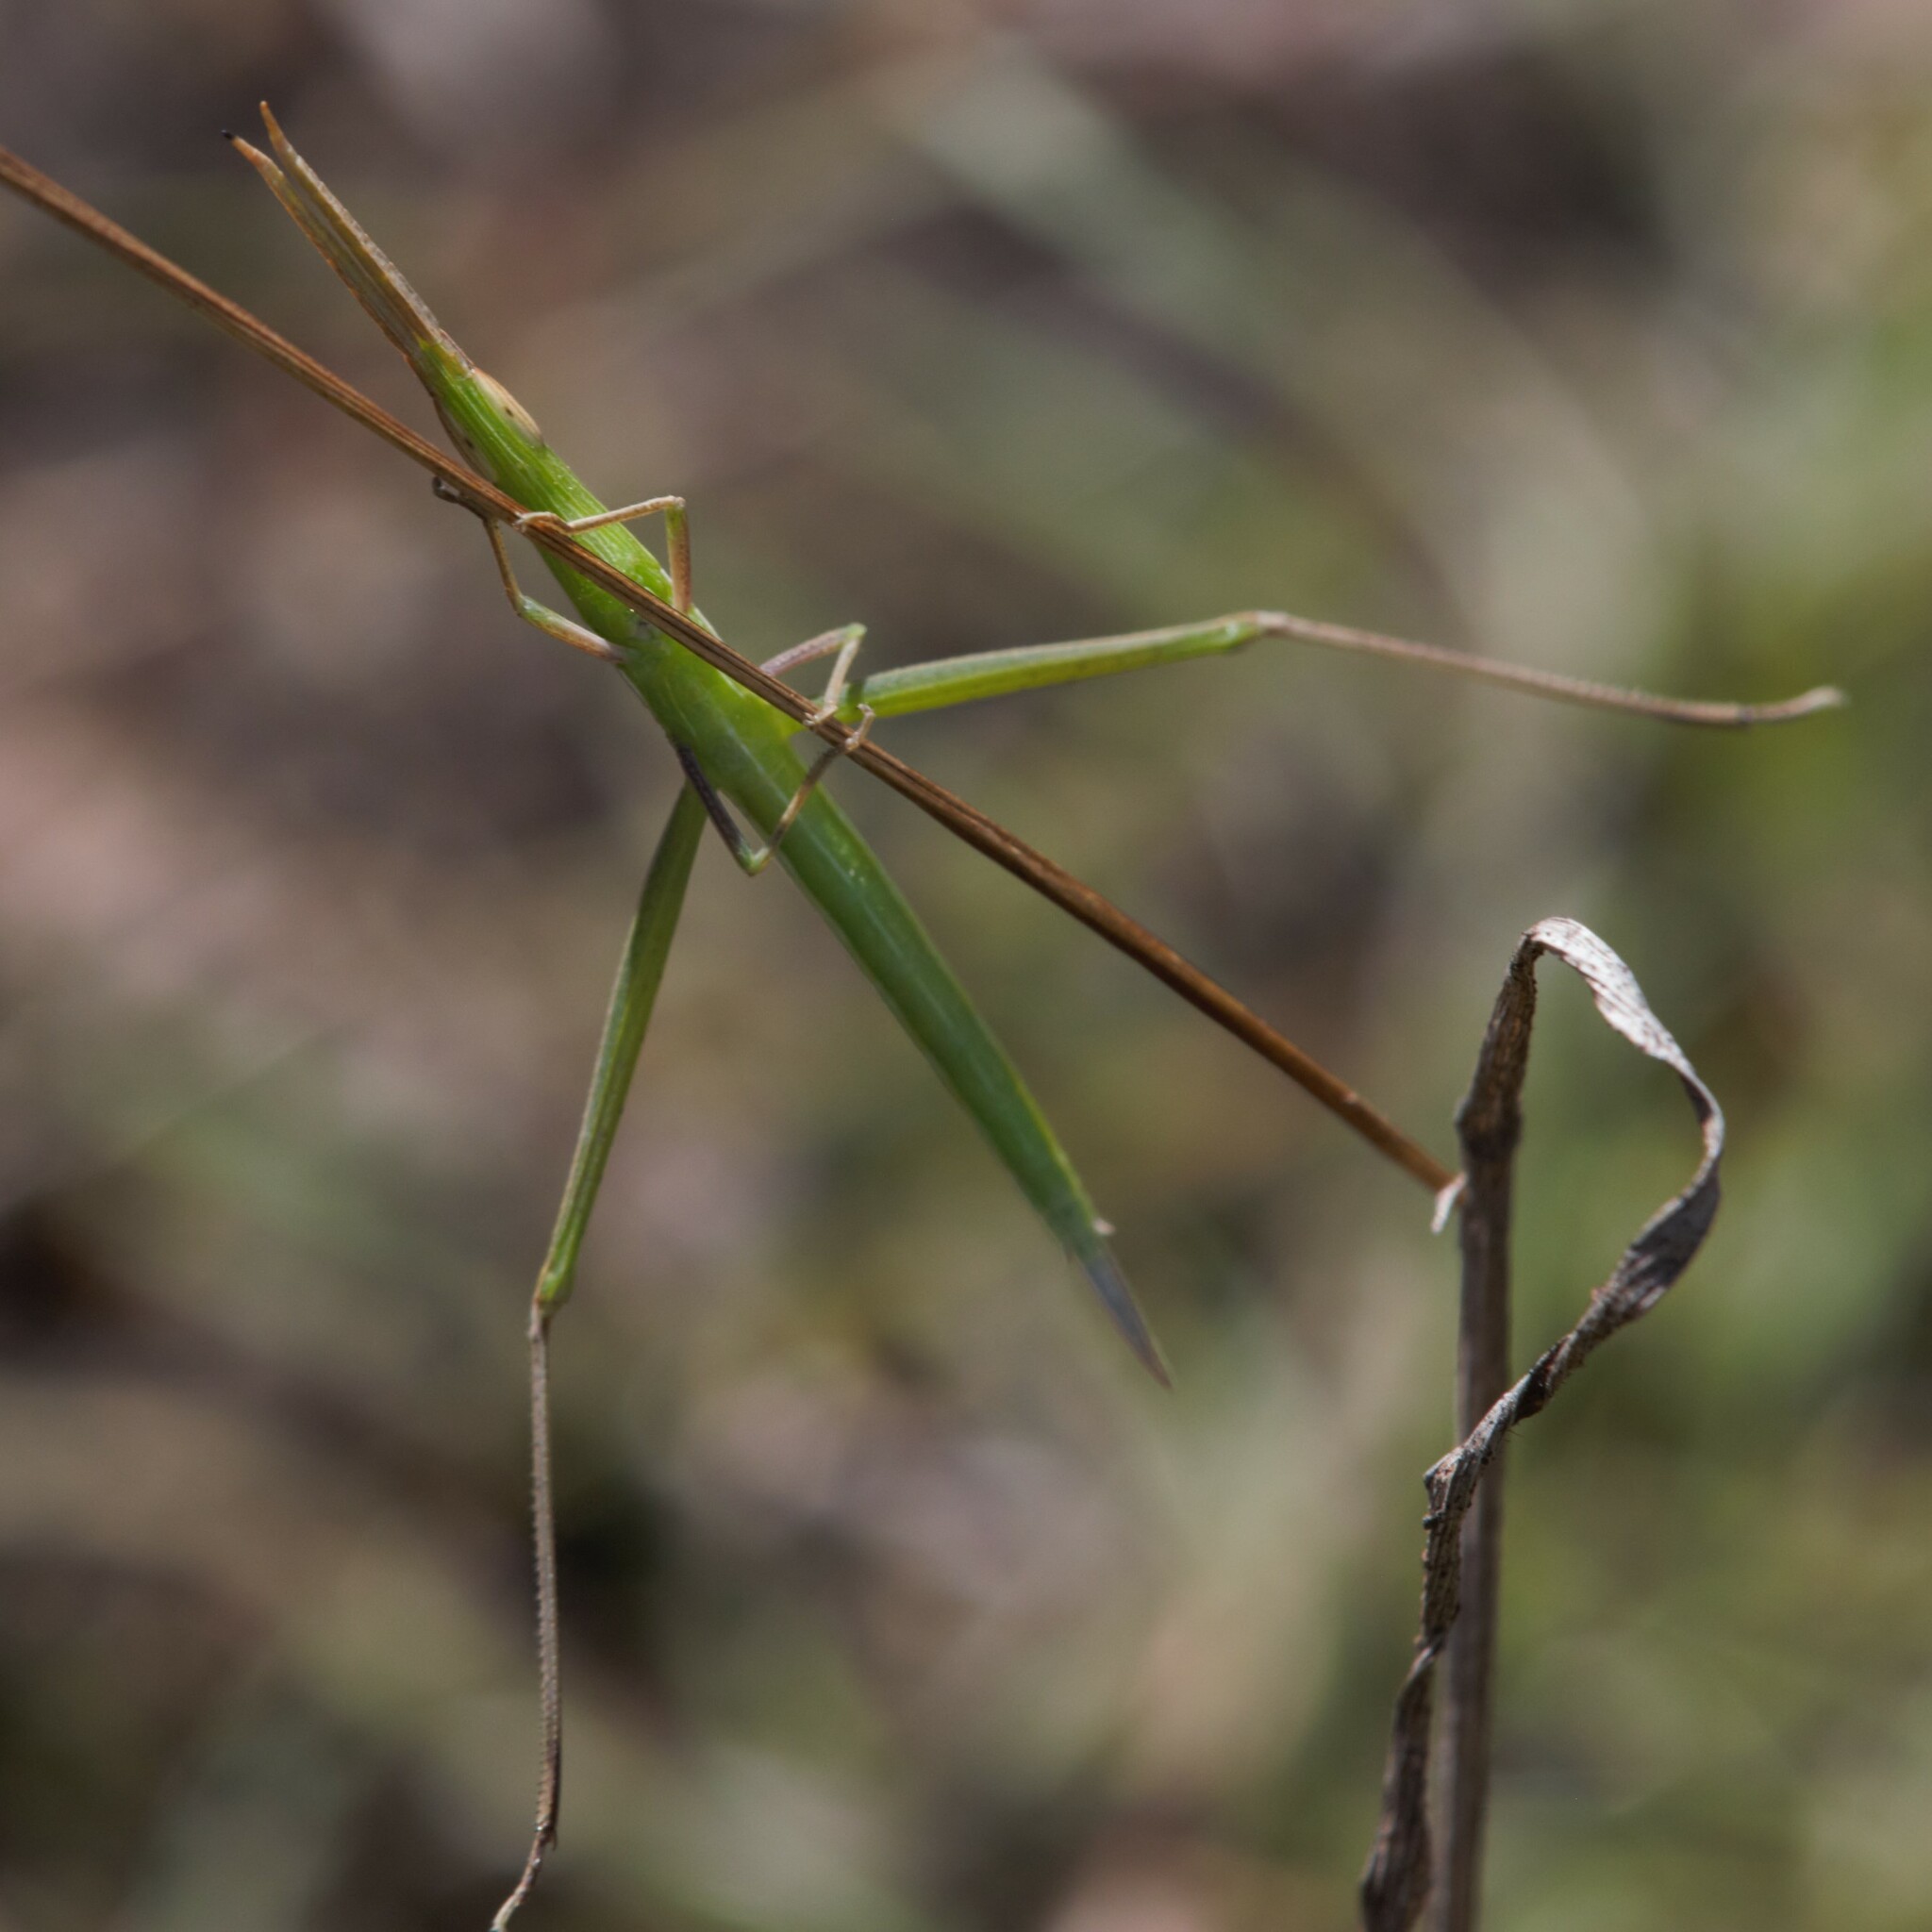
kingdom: Animalia
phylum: Arthropoda
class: Insecta
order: Orthoptera
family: Acrididae
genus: Acrida
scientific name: Acrida conica
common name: Giant green slantface
